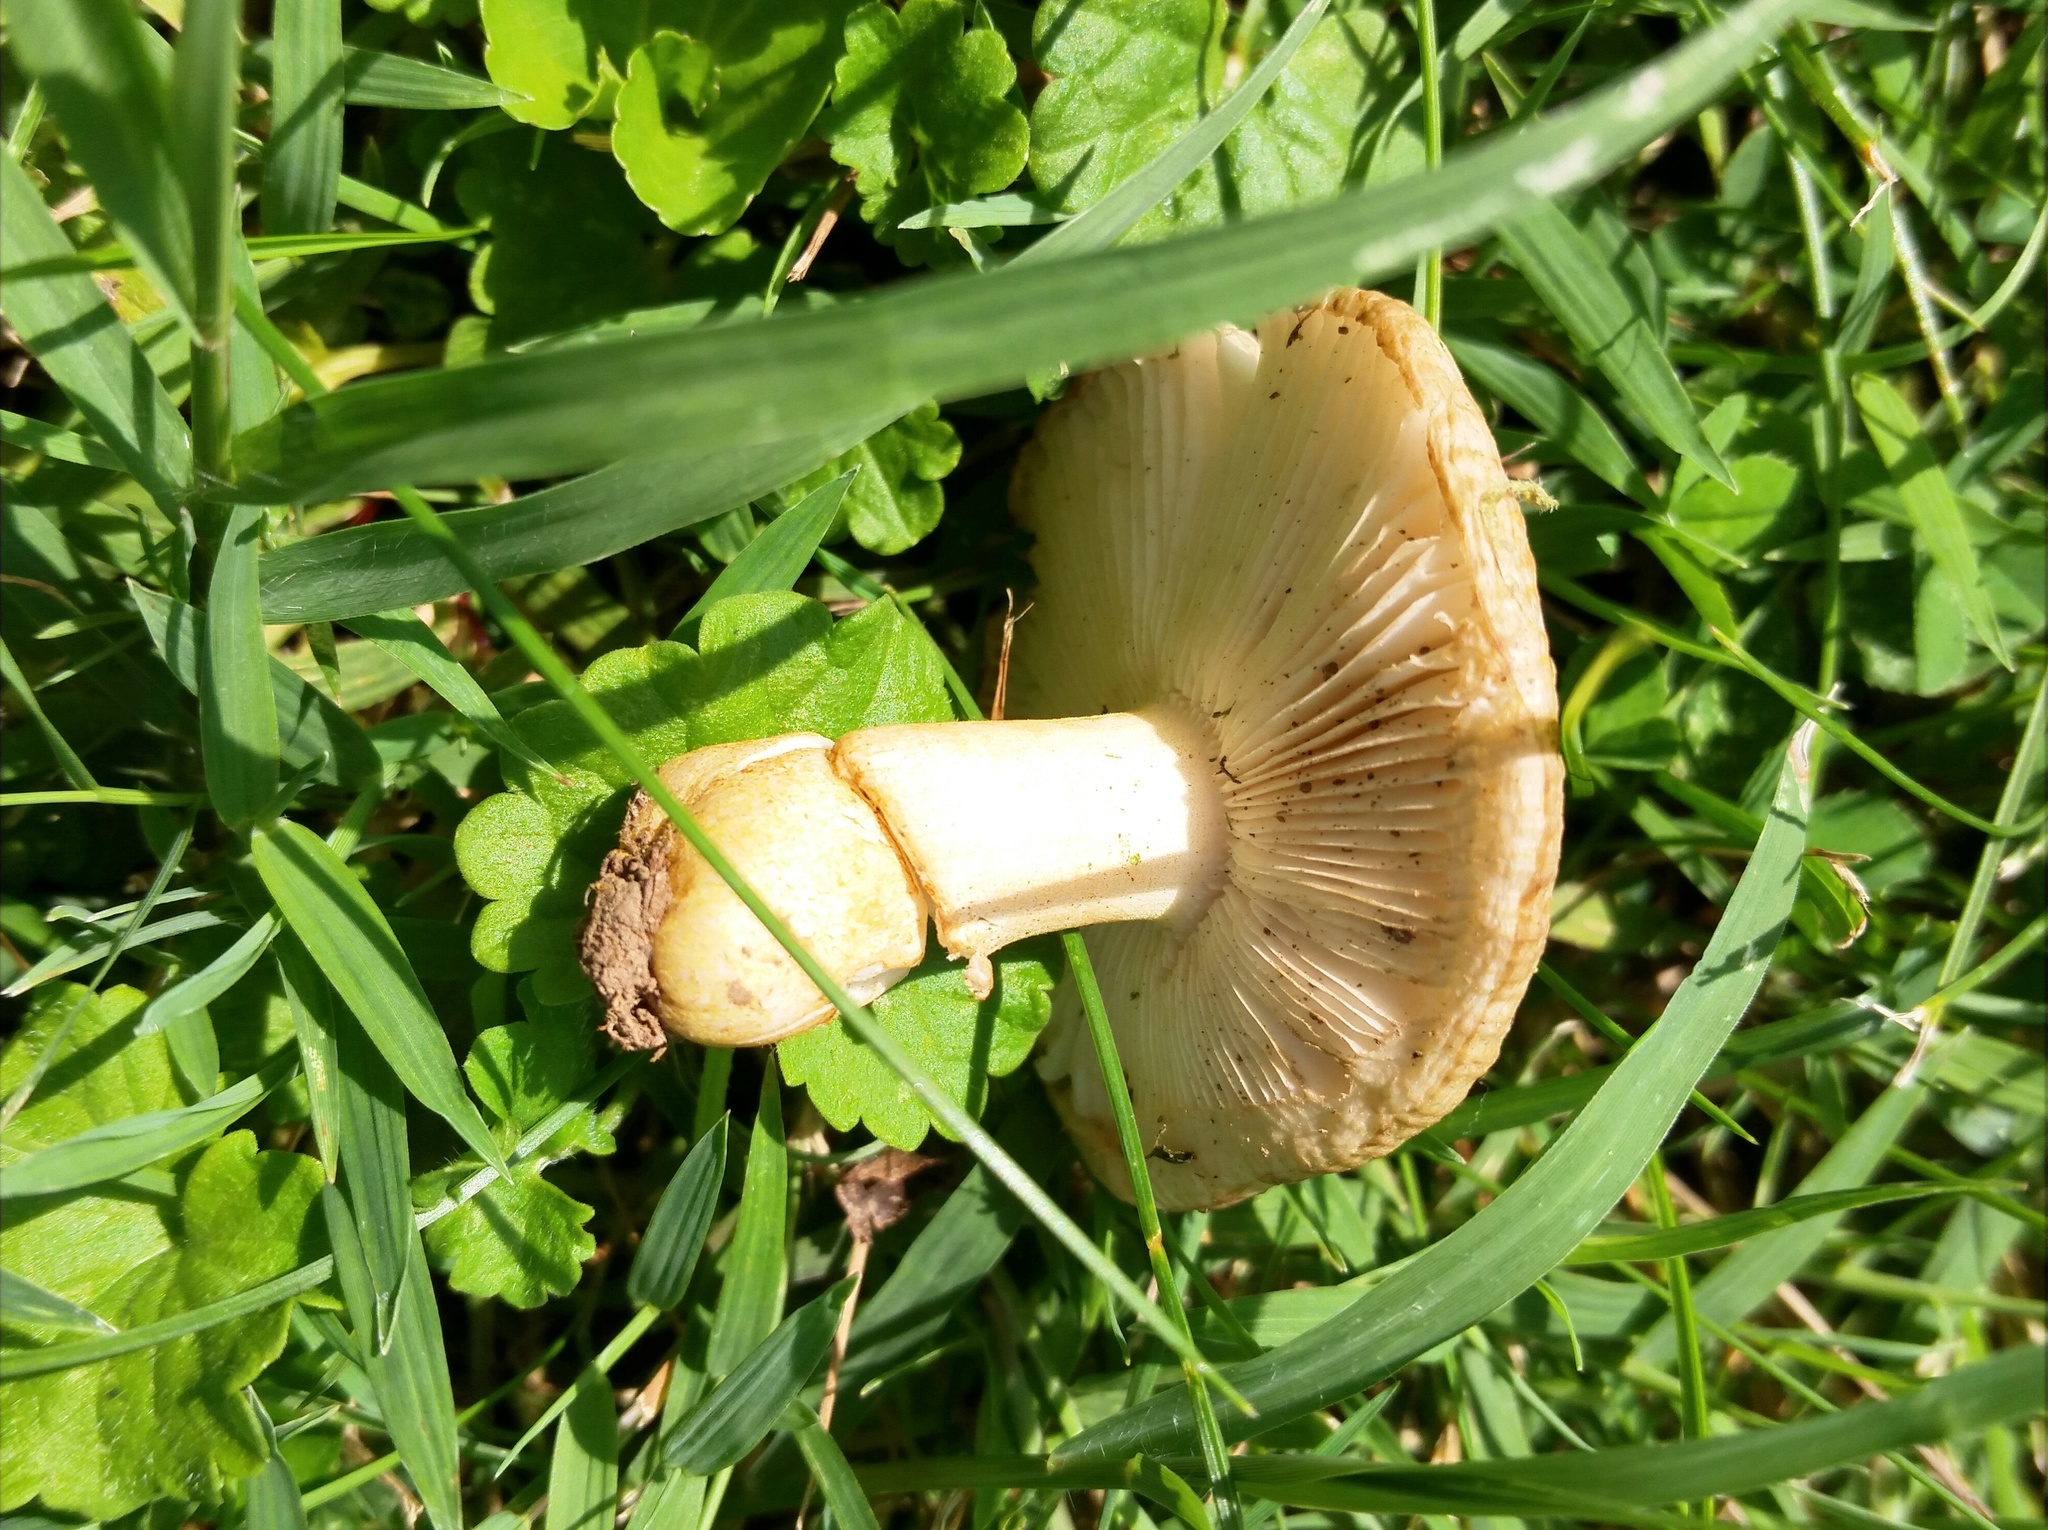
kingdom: Fungi
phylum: Basidiomycota
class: Agaricomycetes
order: Russulales
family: Russulaceae
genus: Russula
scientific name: Russula pulverulenta
